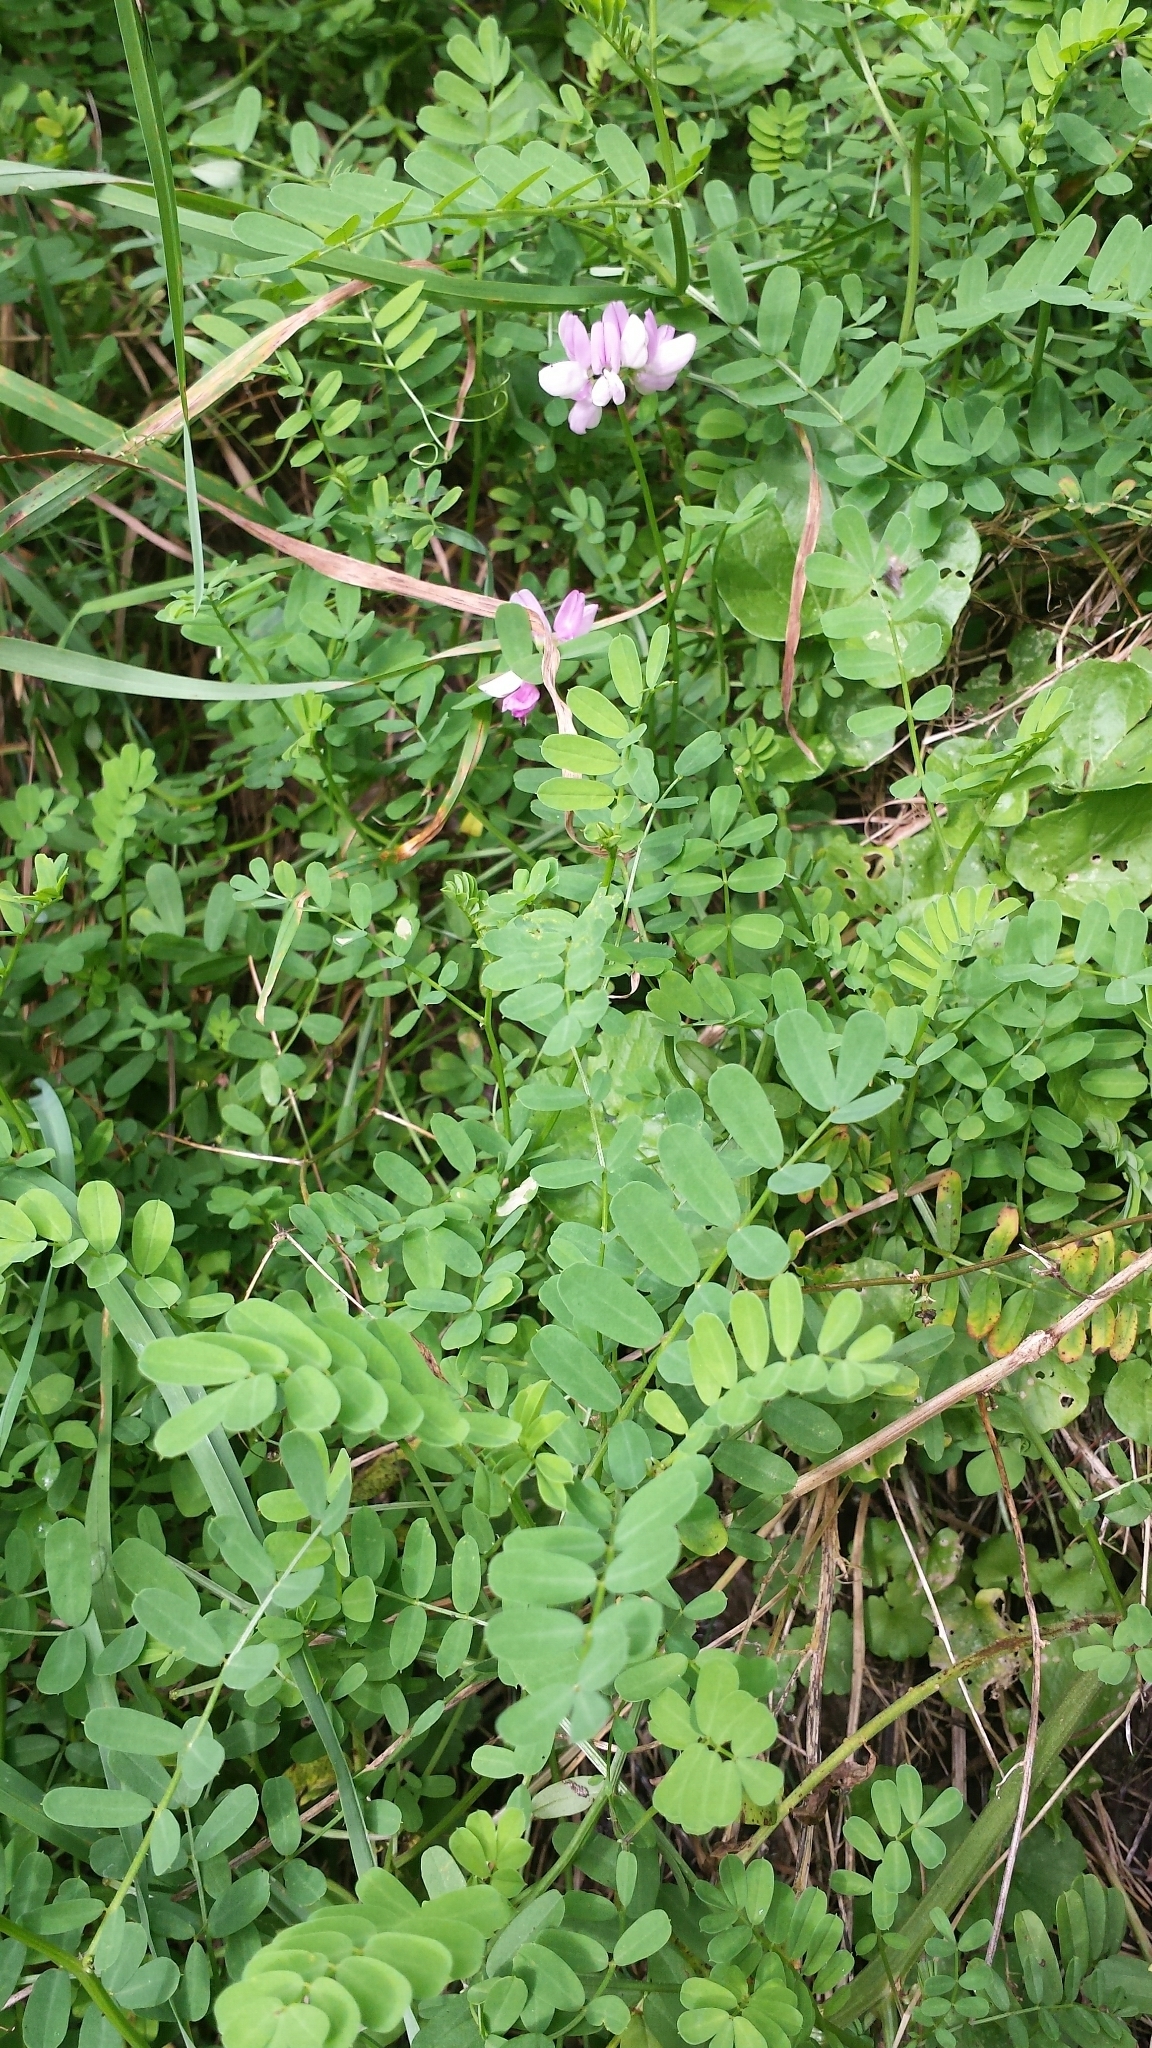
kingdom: Plantae
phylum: Tracheophyta
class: Magnoliopsida
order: Fabales
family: Fabaceae
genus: Coronilla
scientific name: Coronilla varia
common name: Crownvetch
